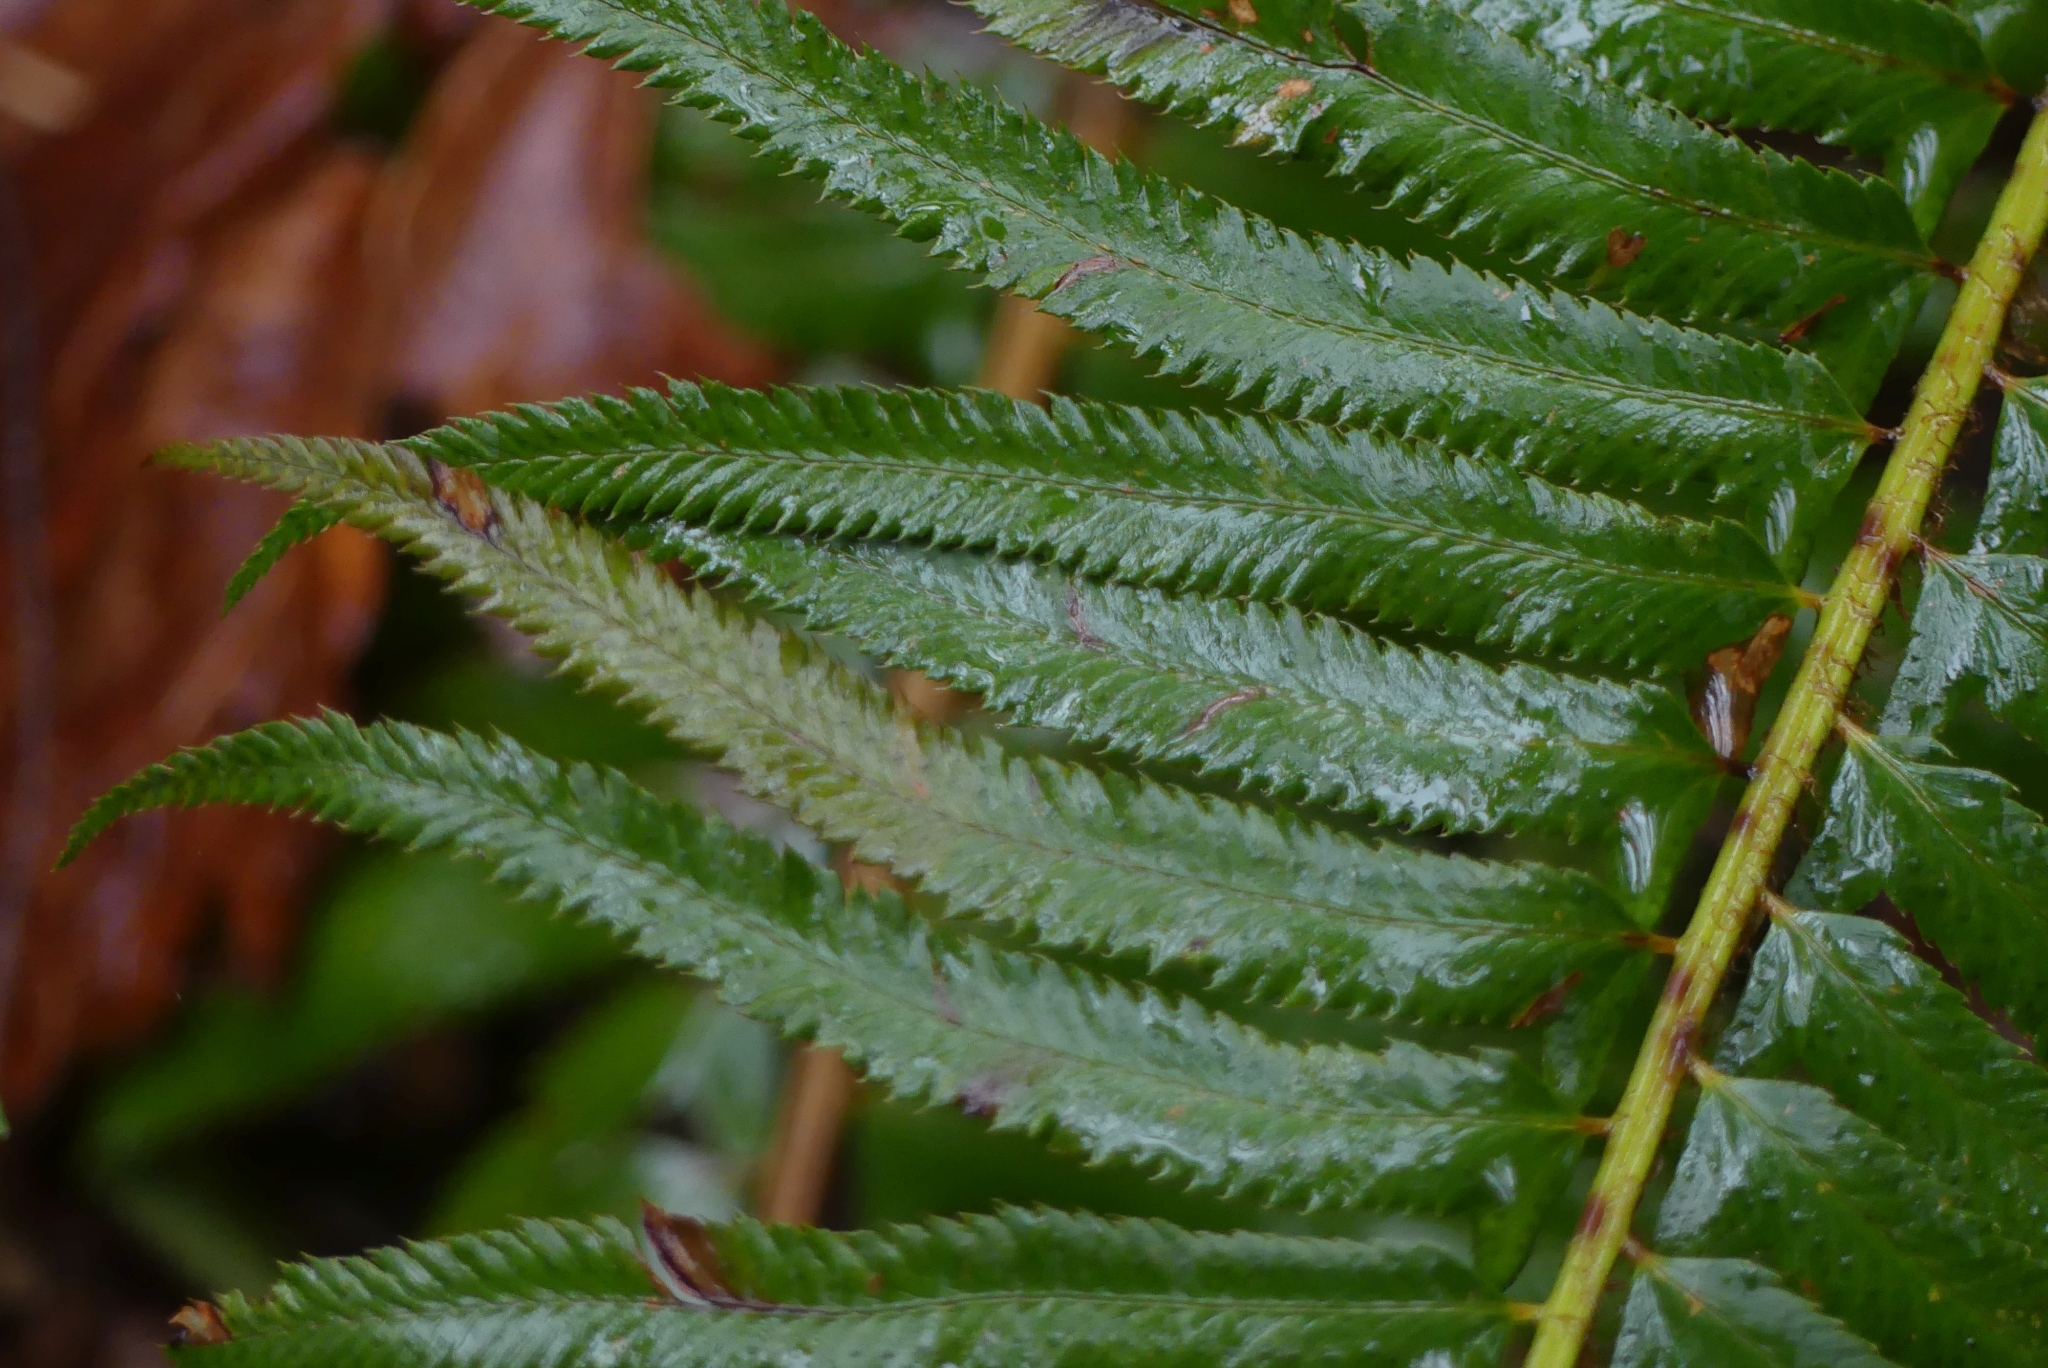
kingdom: Plantae
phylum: Tracheophyta
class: Polypodiopsida
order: Polypodiales
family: Dryopteridaceae
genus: Polystichum
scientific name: Polystichum munitum
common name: Western sword-fern
